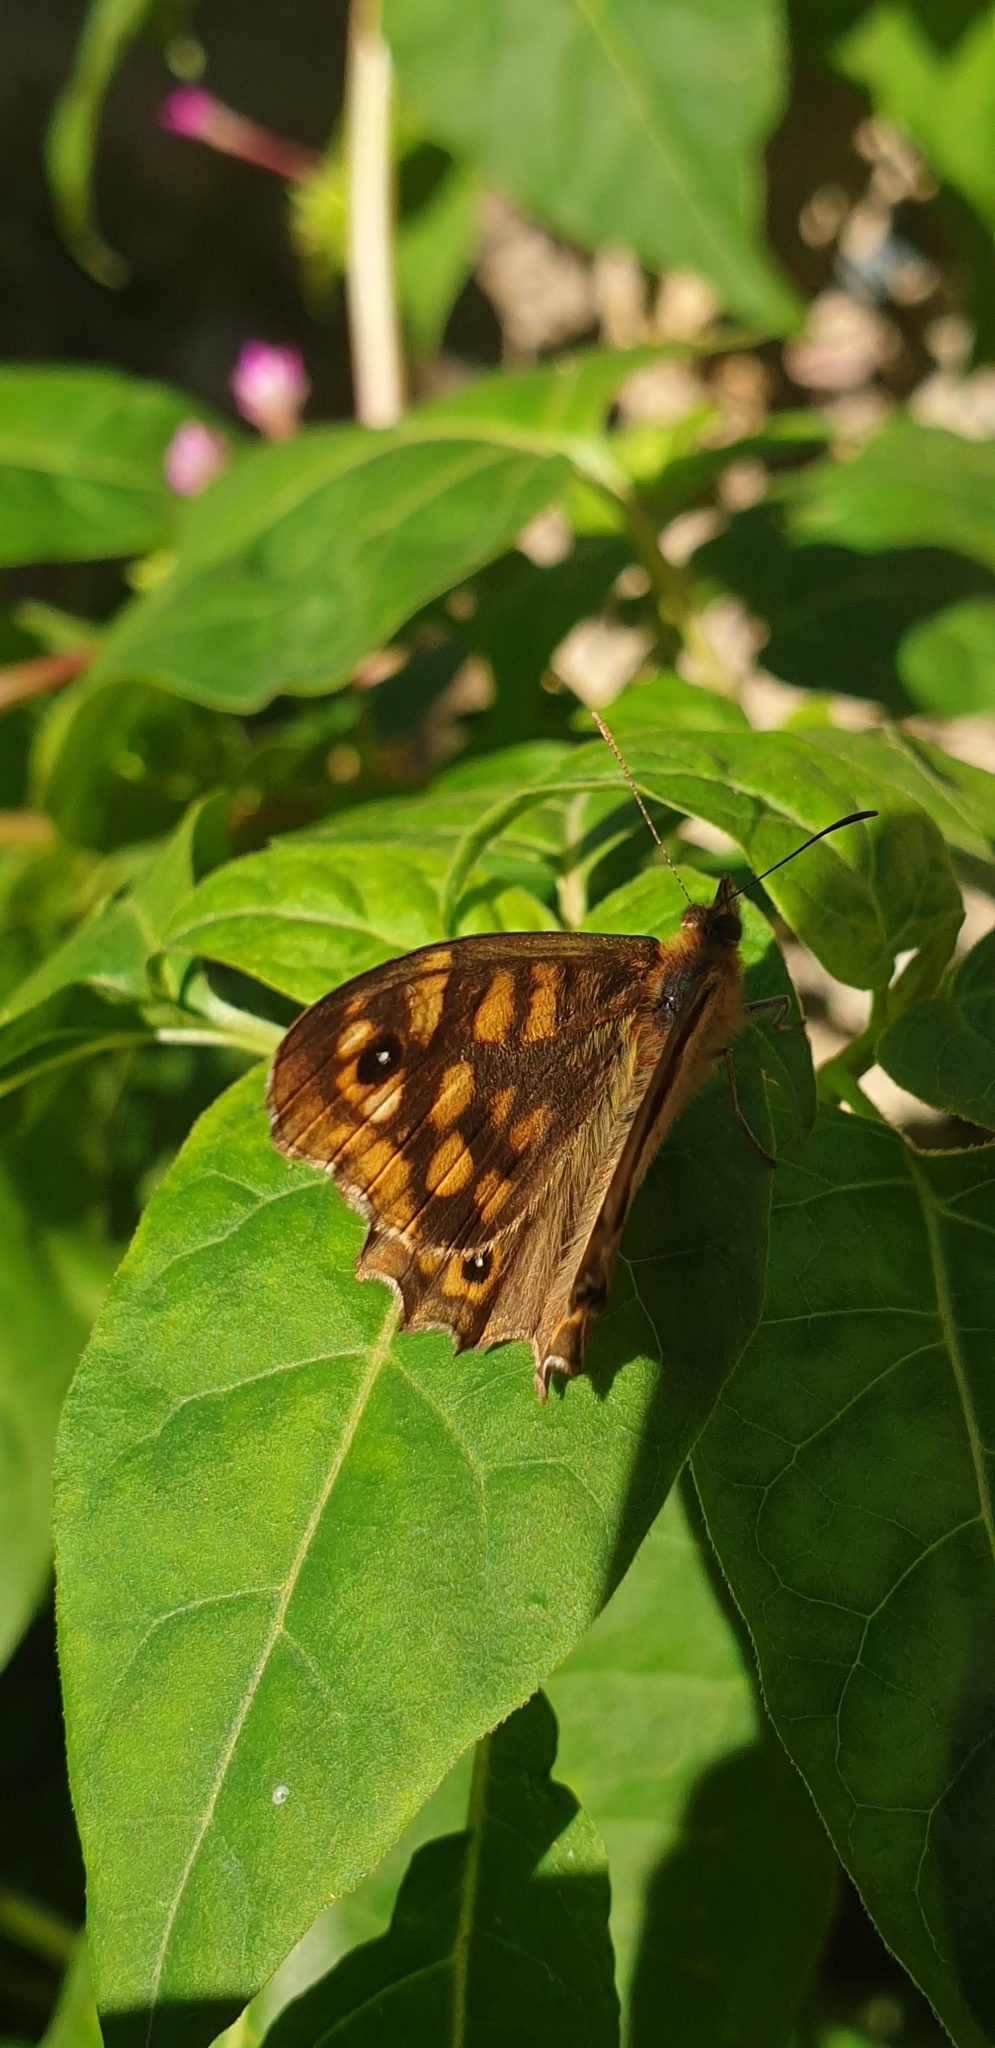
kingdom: Animalia
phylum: Arthropoda
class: Insecta
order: Lepidoptera
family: Nymphalidae
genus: Pararge
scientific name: Pararge aegeria
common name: Speckled wood
